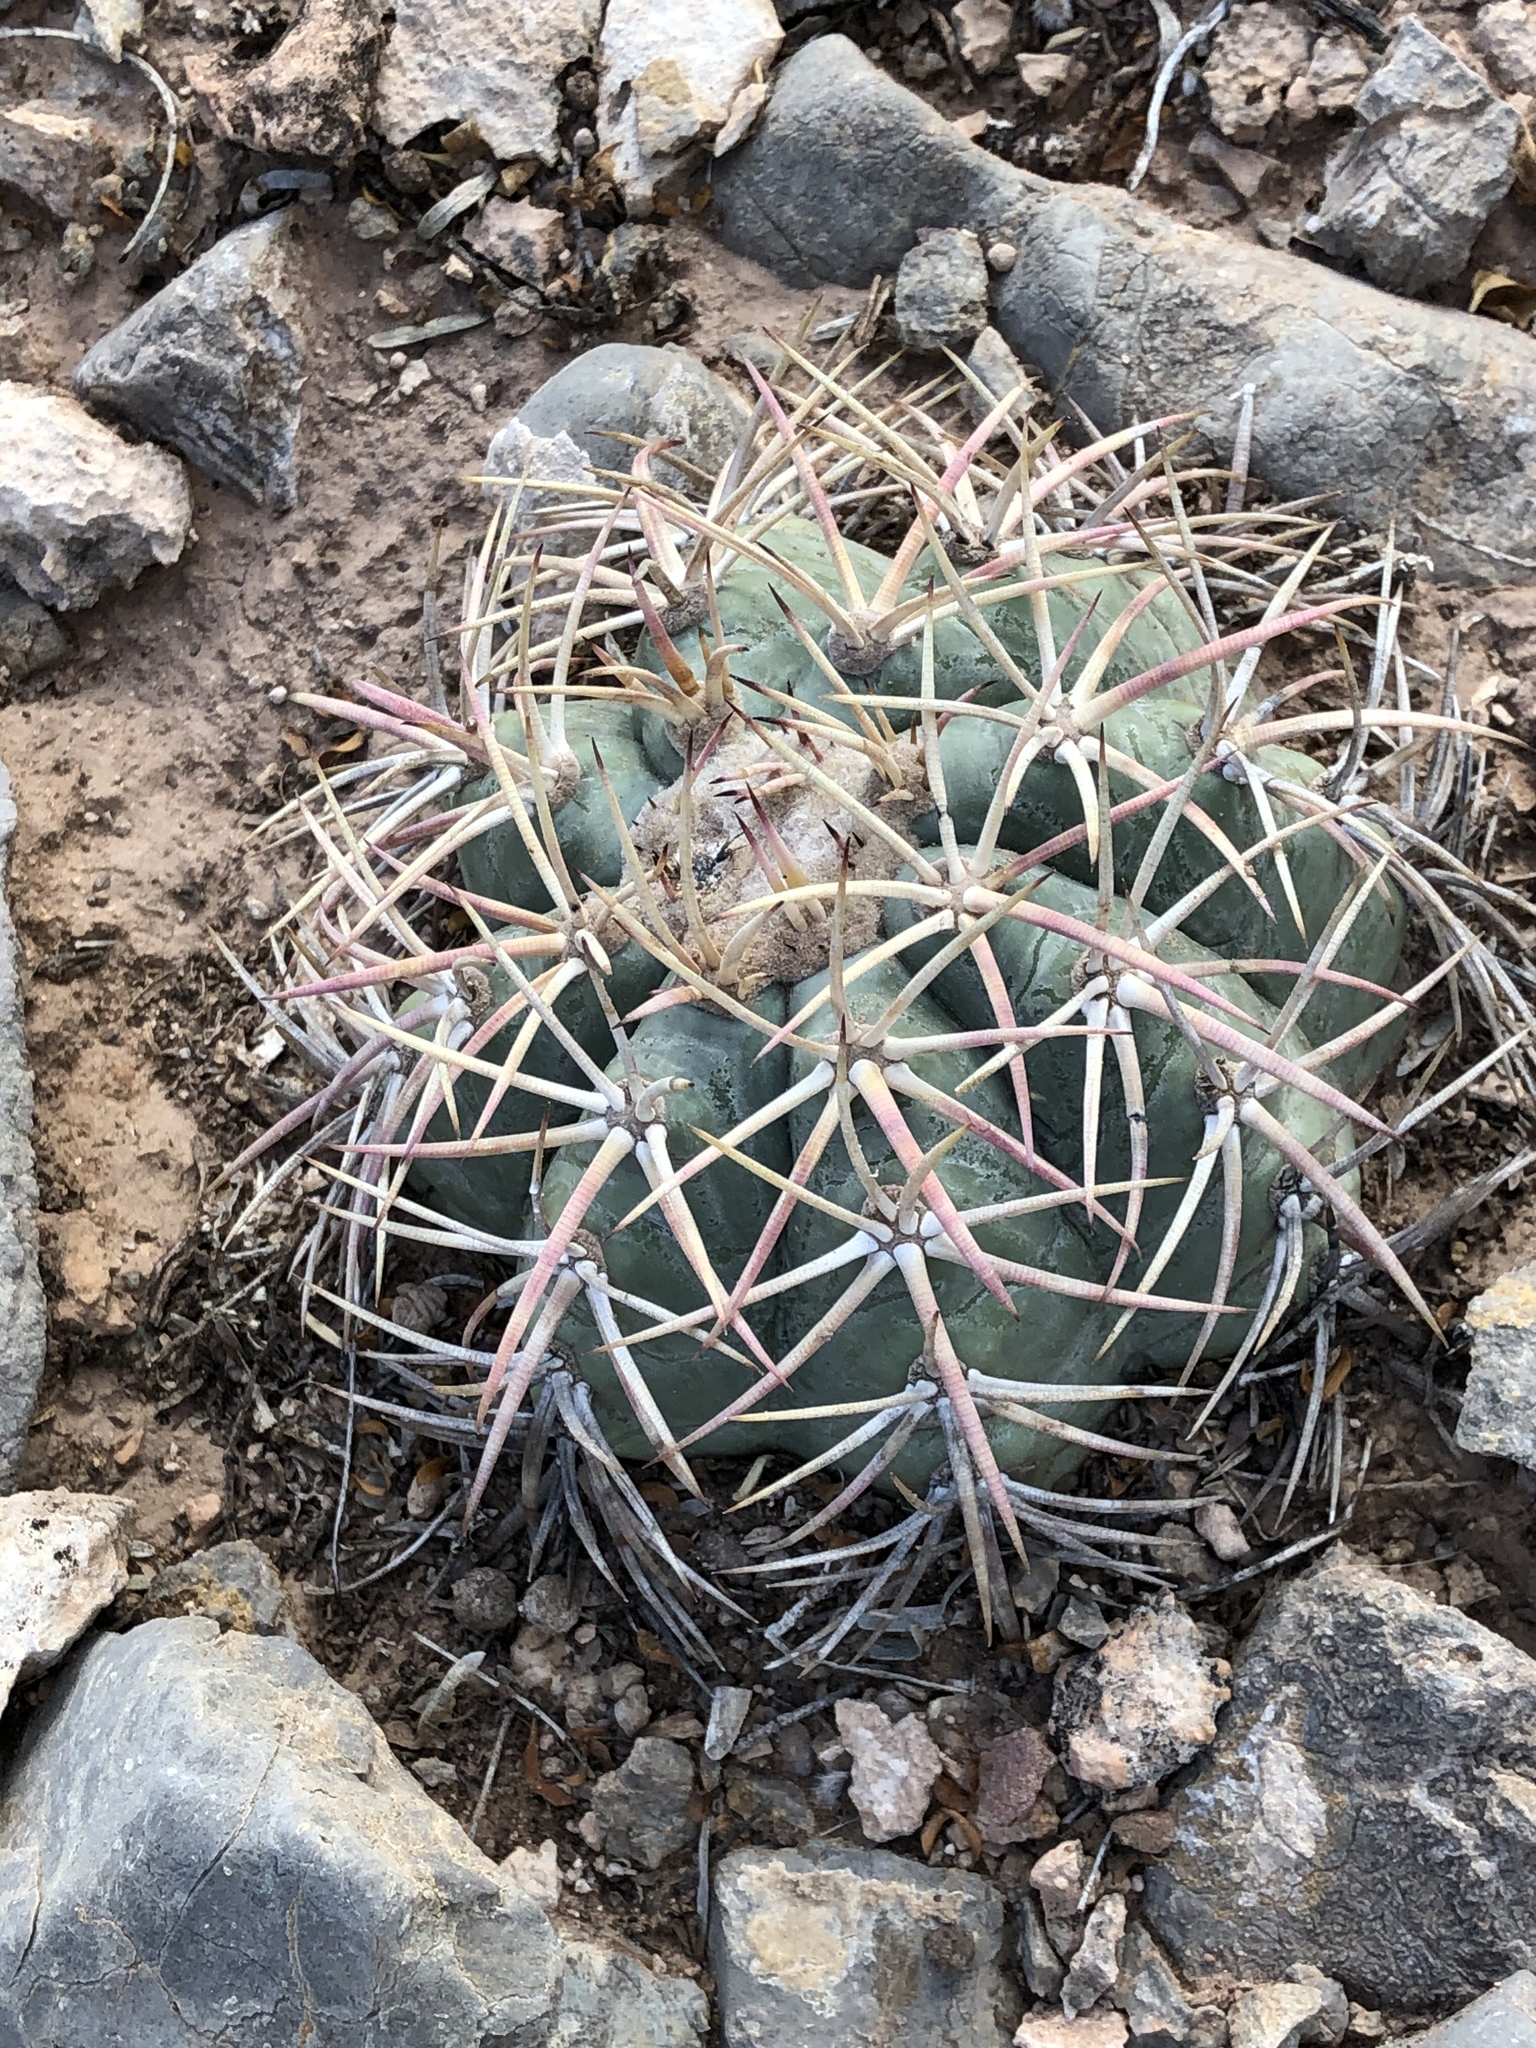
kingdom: Plantae
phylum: Tracheophyta
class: Magnoliopsida
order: Caryophyllales
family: Cactaceae
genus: Echinocactus
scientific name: Echinocactus horizonthalonius
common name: Devilshead
